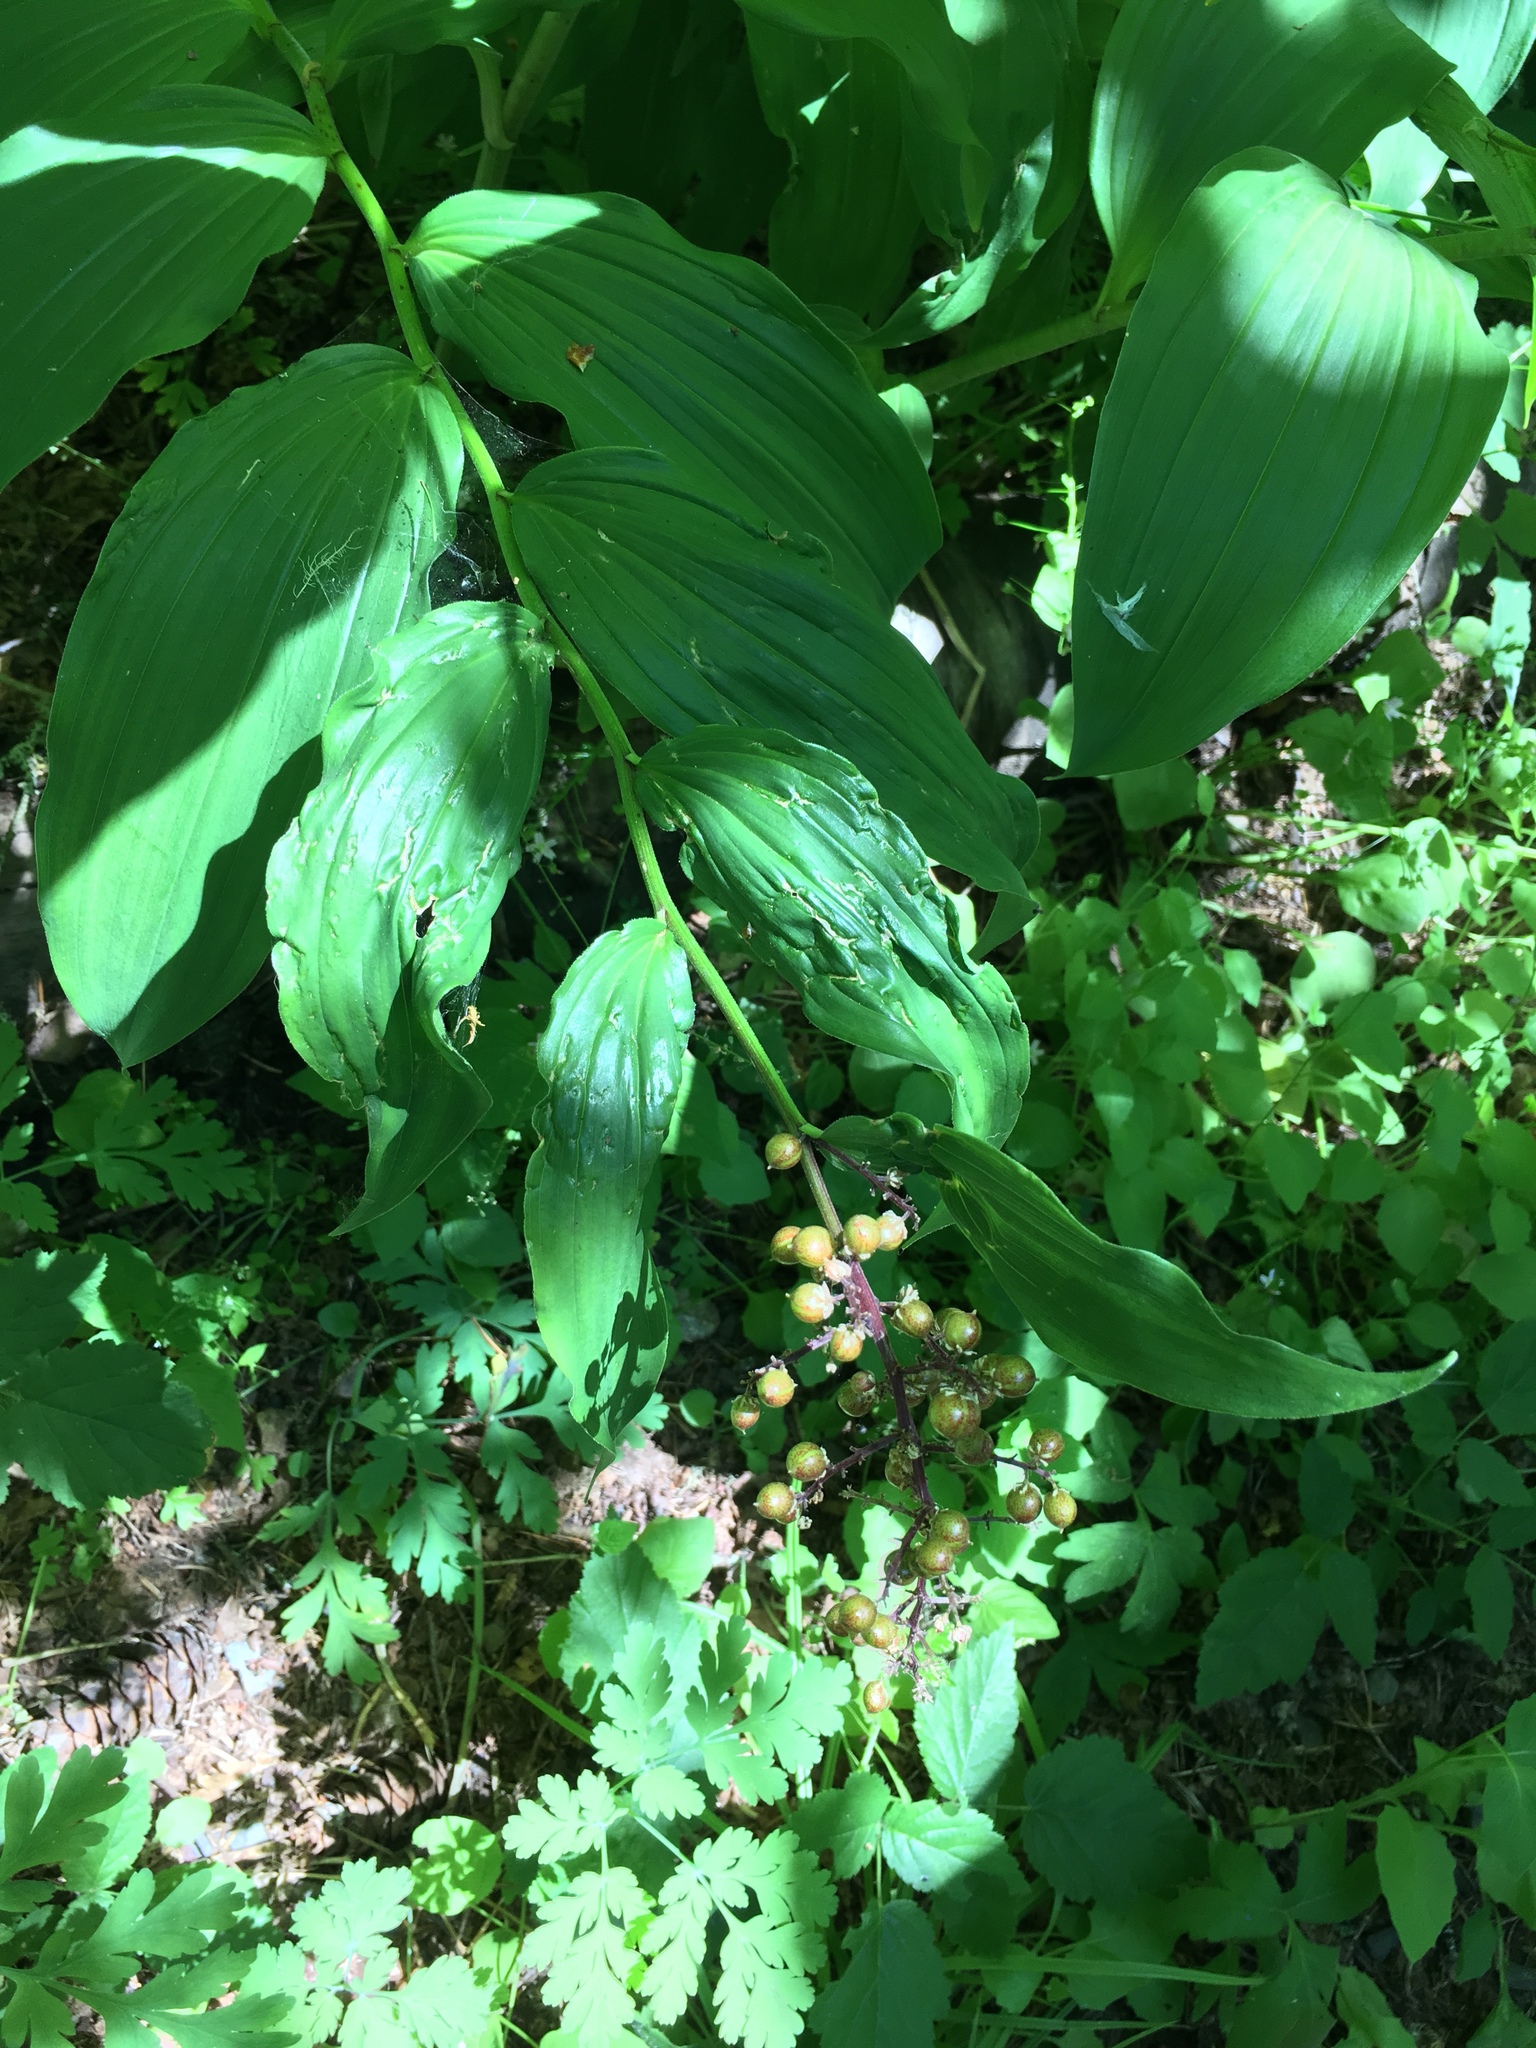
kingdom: Plantae
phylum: Tracheophyta
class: Liliopsida
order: Asparagales
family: Asparagaceae
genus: Maianthemum
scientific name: Maianthemum racemosum
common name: False spikenard
